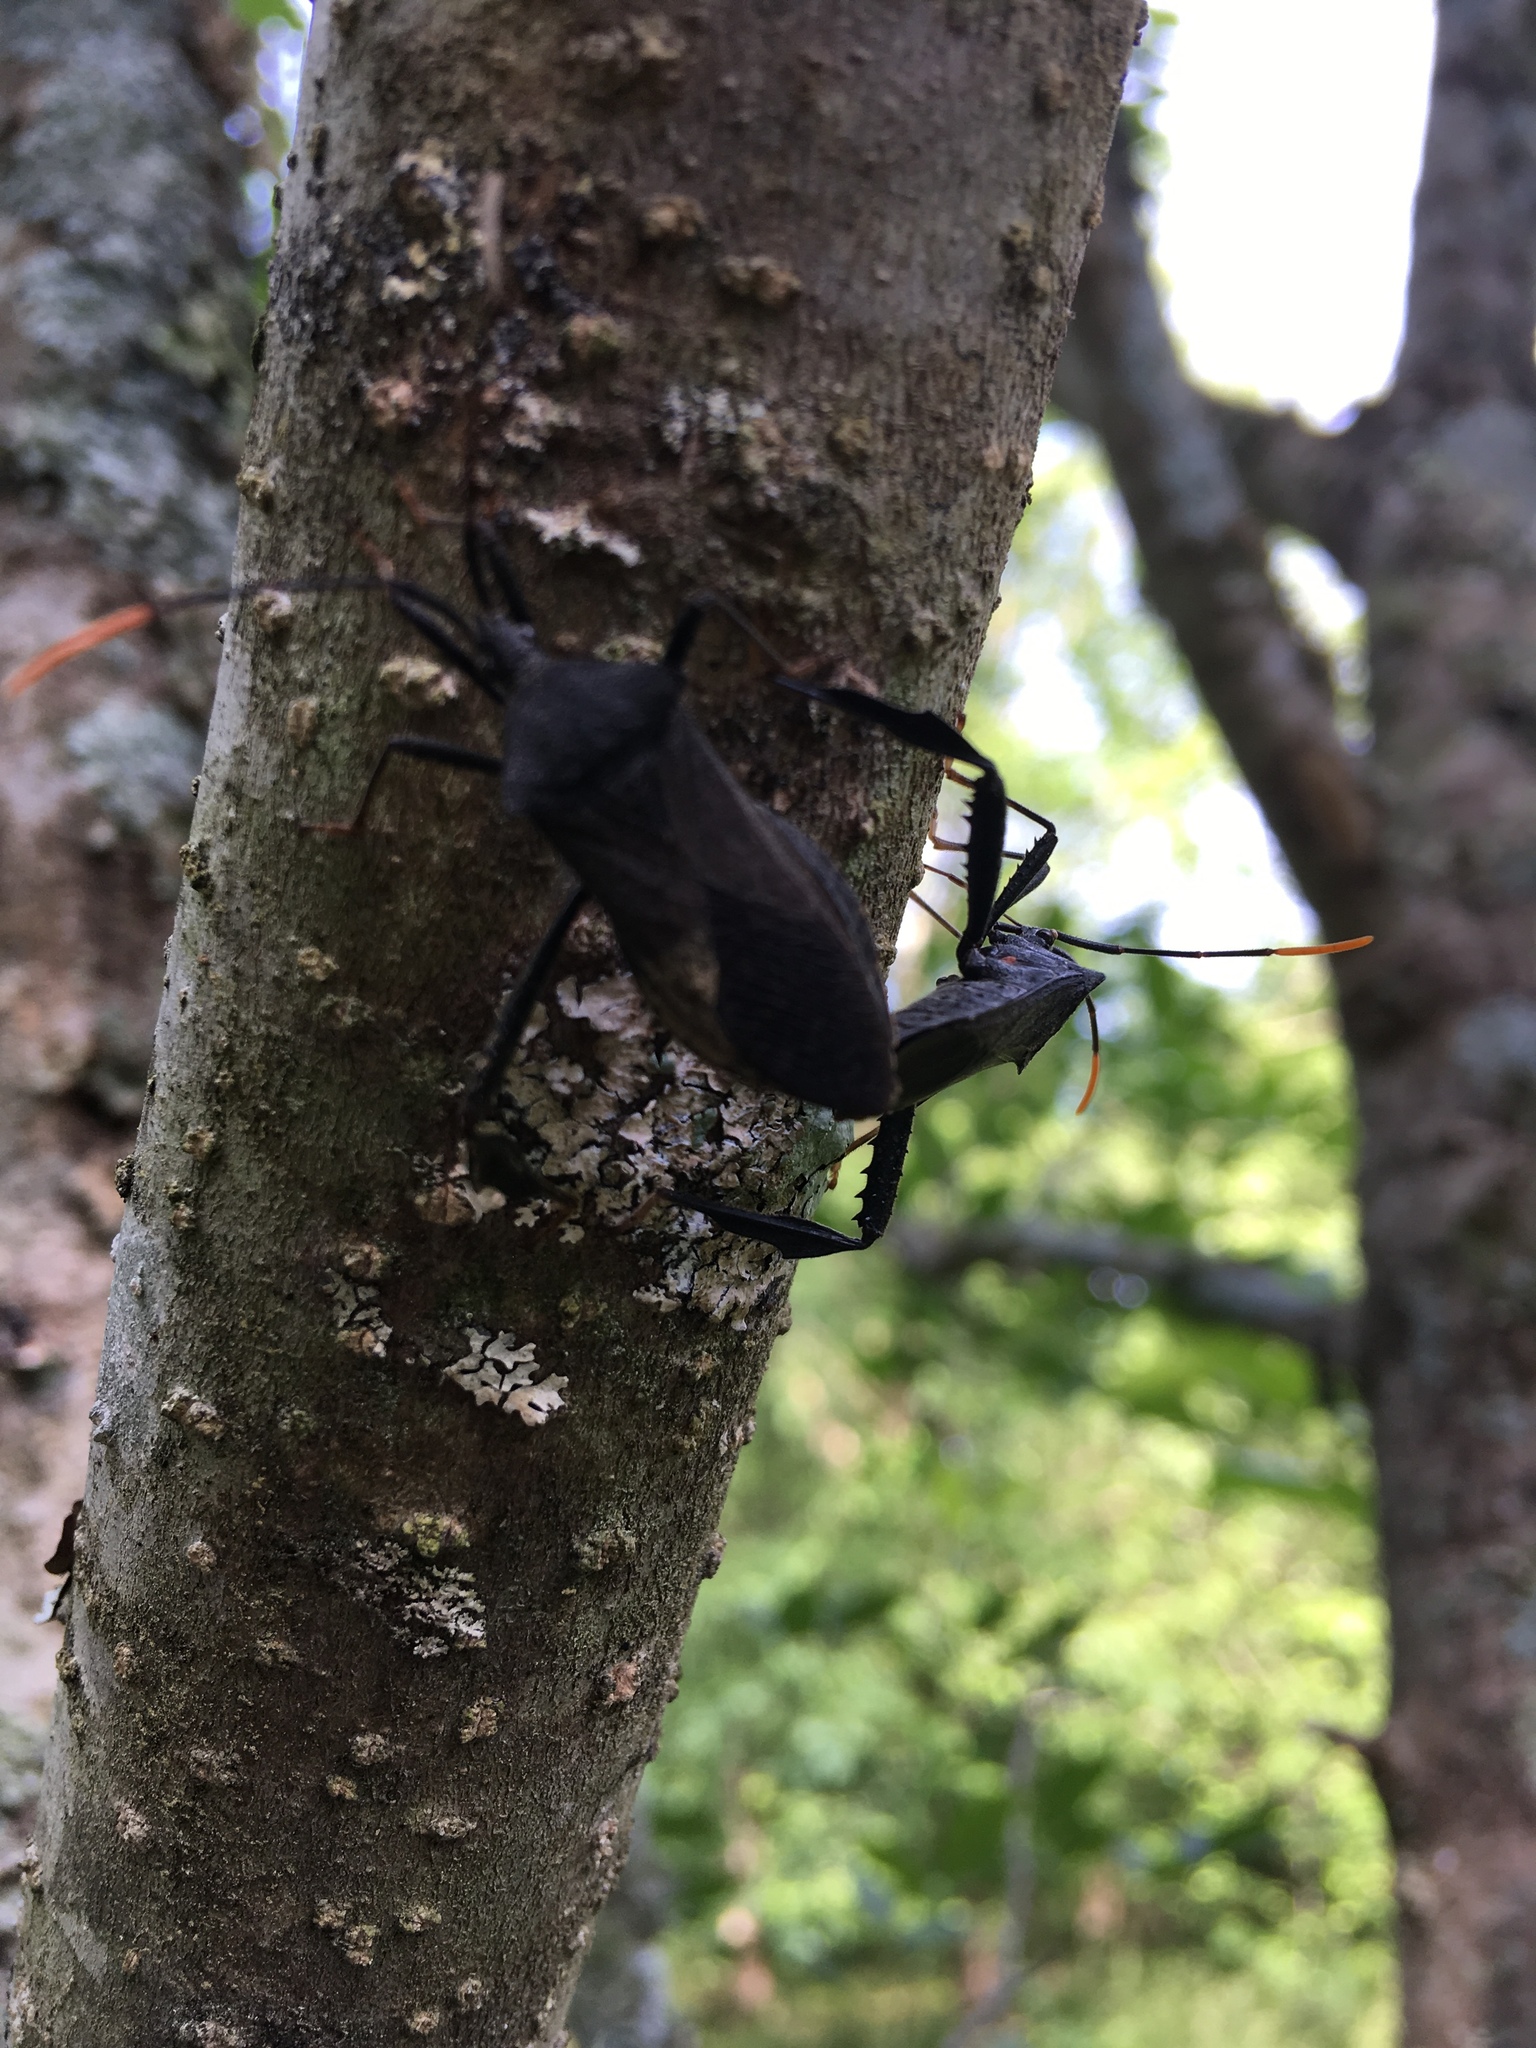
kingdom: Animalia
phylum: Arthropoda
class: Insecta
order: Hemiptera
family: Coreidae
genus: Acanthocephala
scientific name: Acanthocephala terminalis
